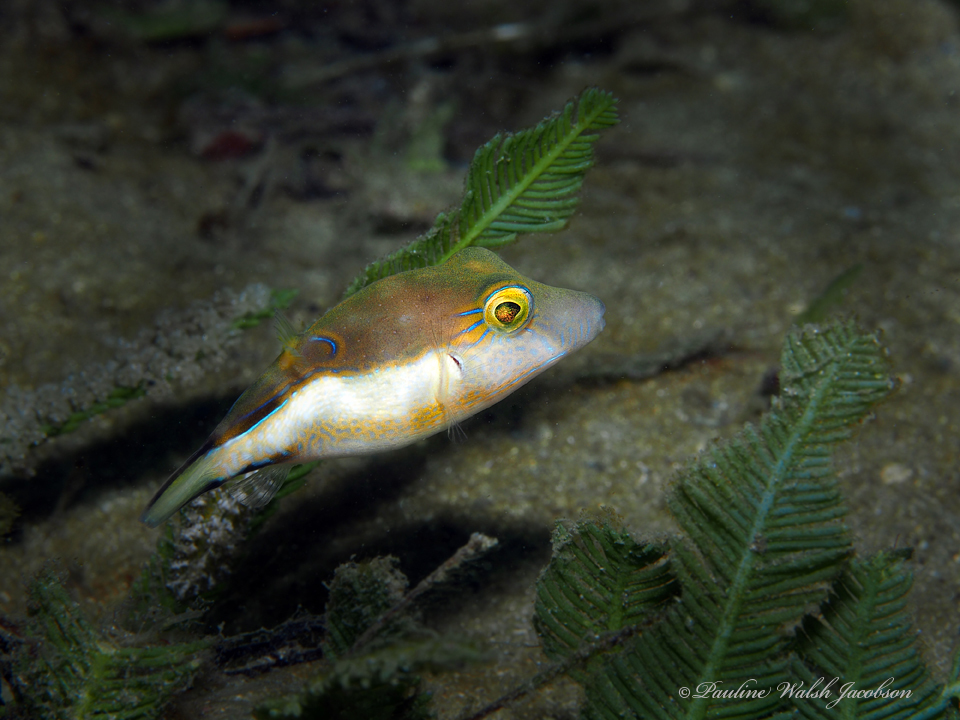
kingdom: Animalia
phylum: Chordata
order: Tetraodontiformes
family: Tetraodontidae
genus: Canthigaster
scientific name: Canthigaster rostrata
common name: Caribbean sharpnose-puffer
